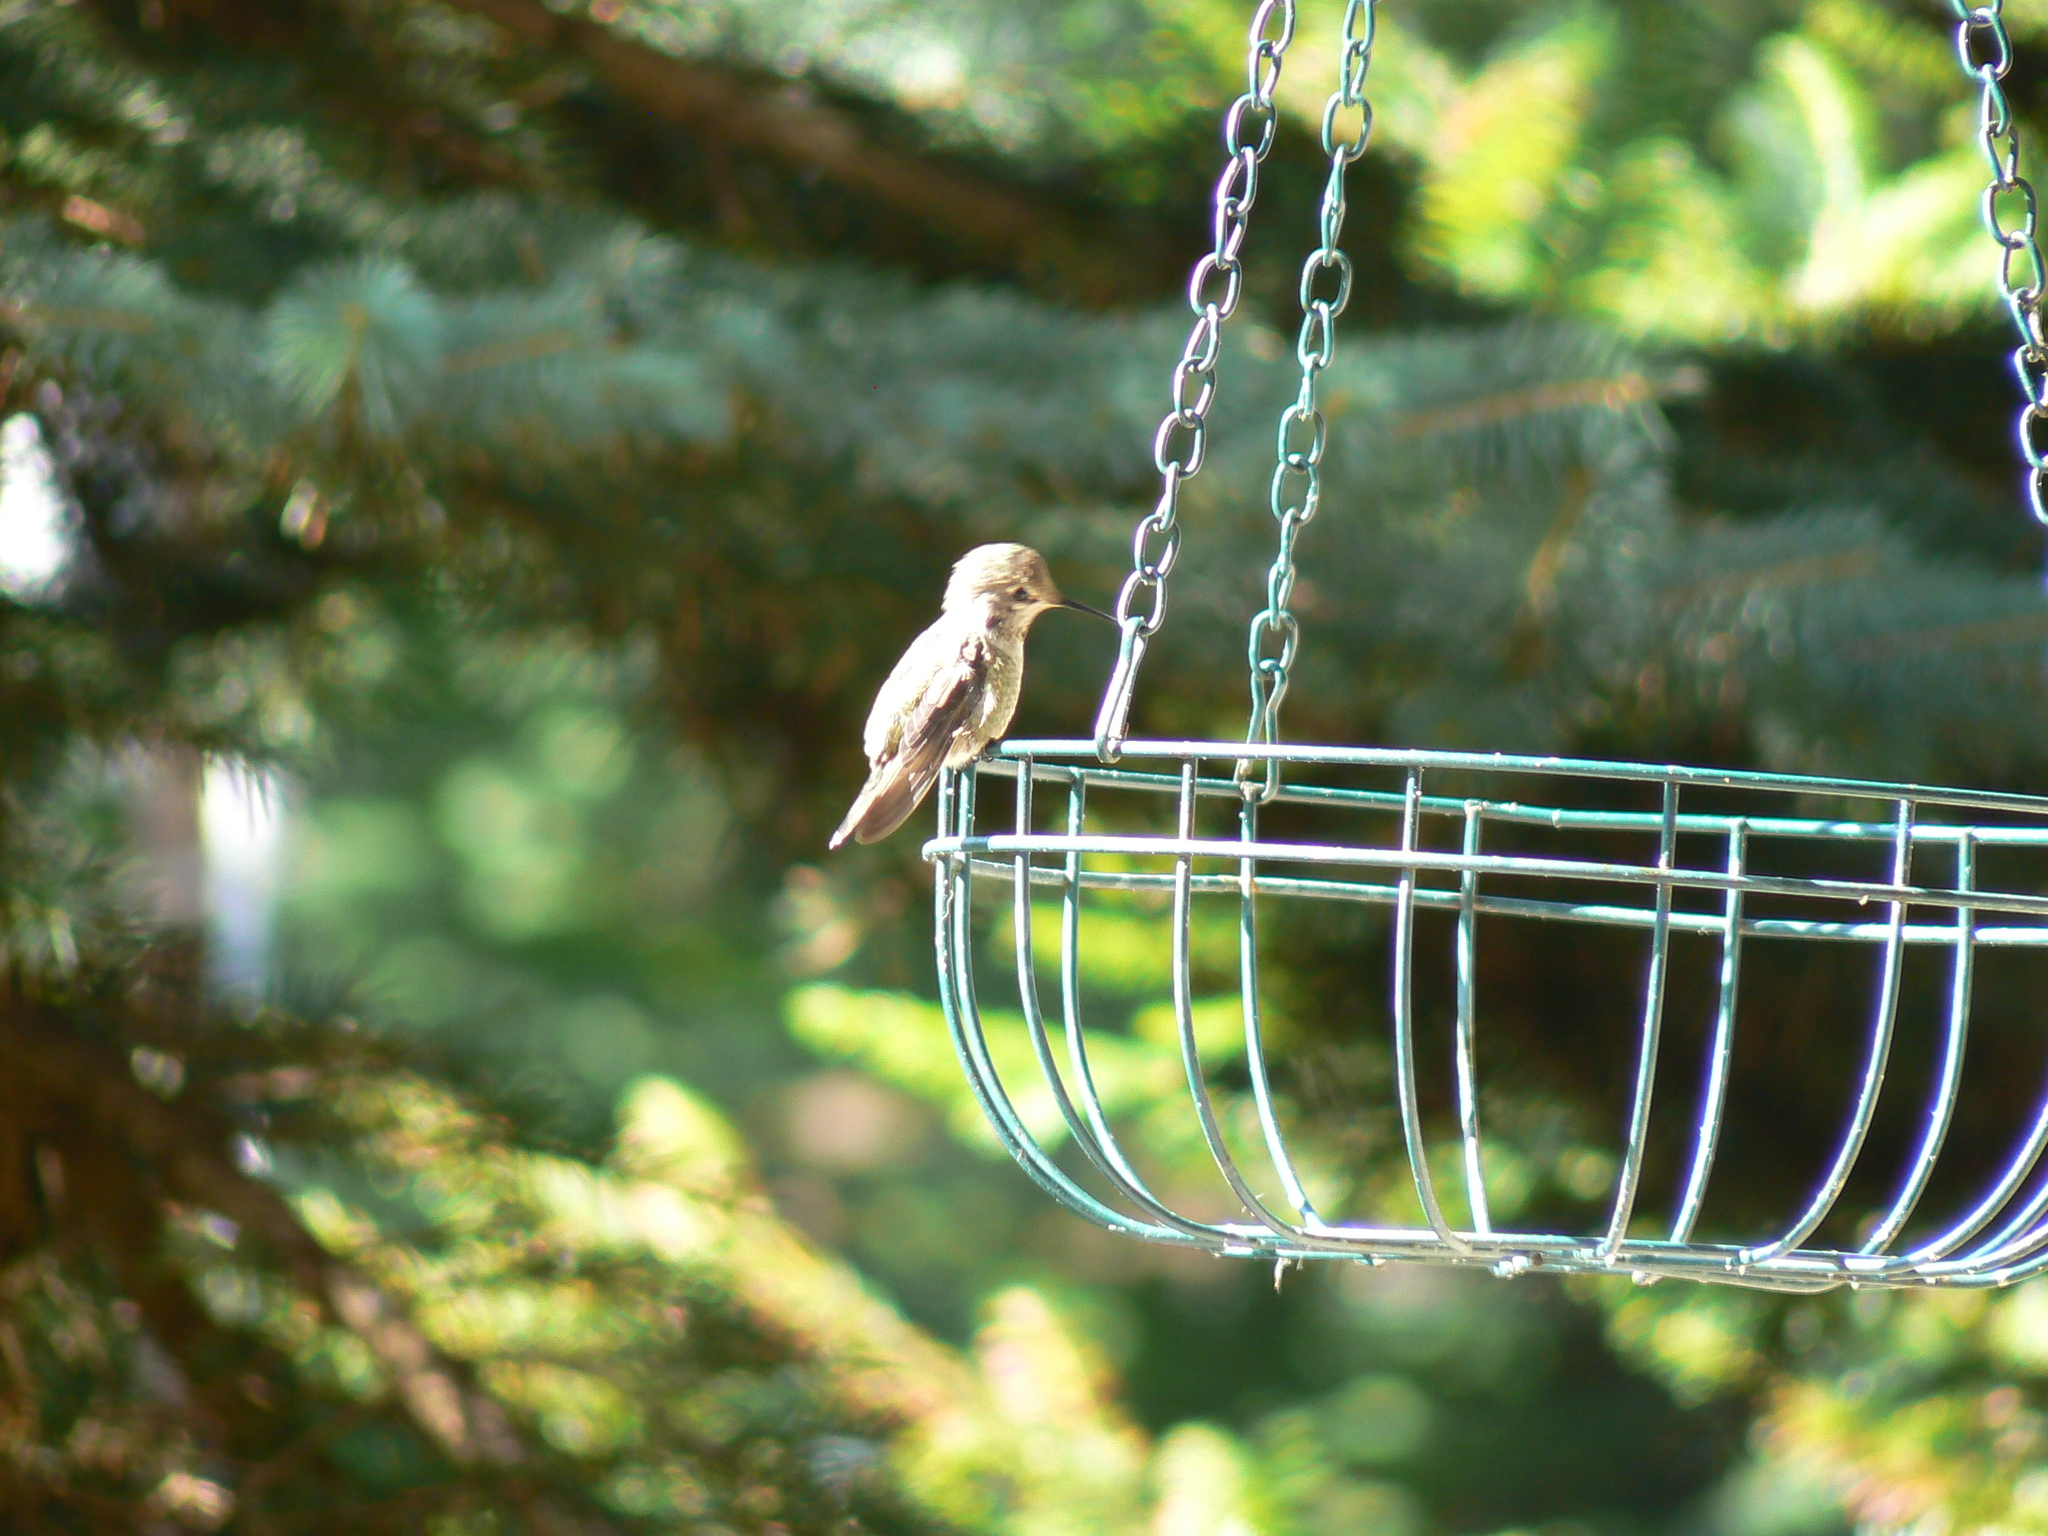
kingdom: Animalia
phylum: Chordata
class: Aves
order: Apodiformes
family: Trochilidae
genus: Calypte
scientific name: Calypte anna
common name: Anna's hummingbird
